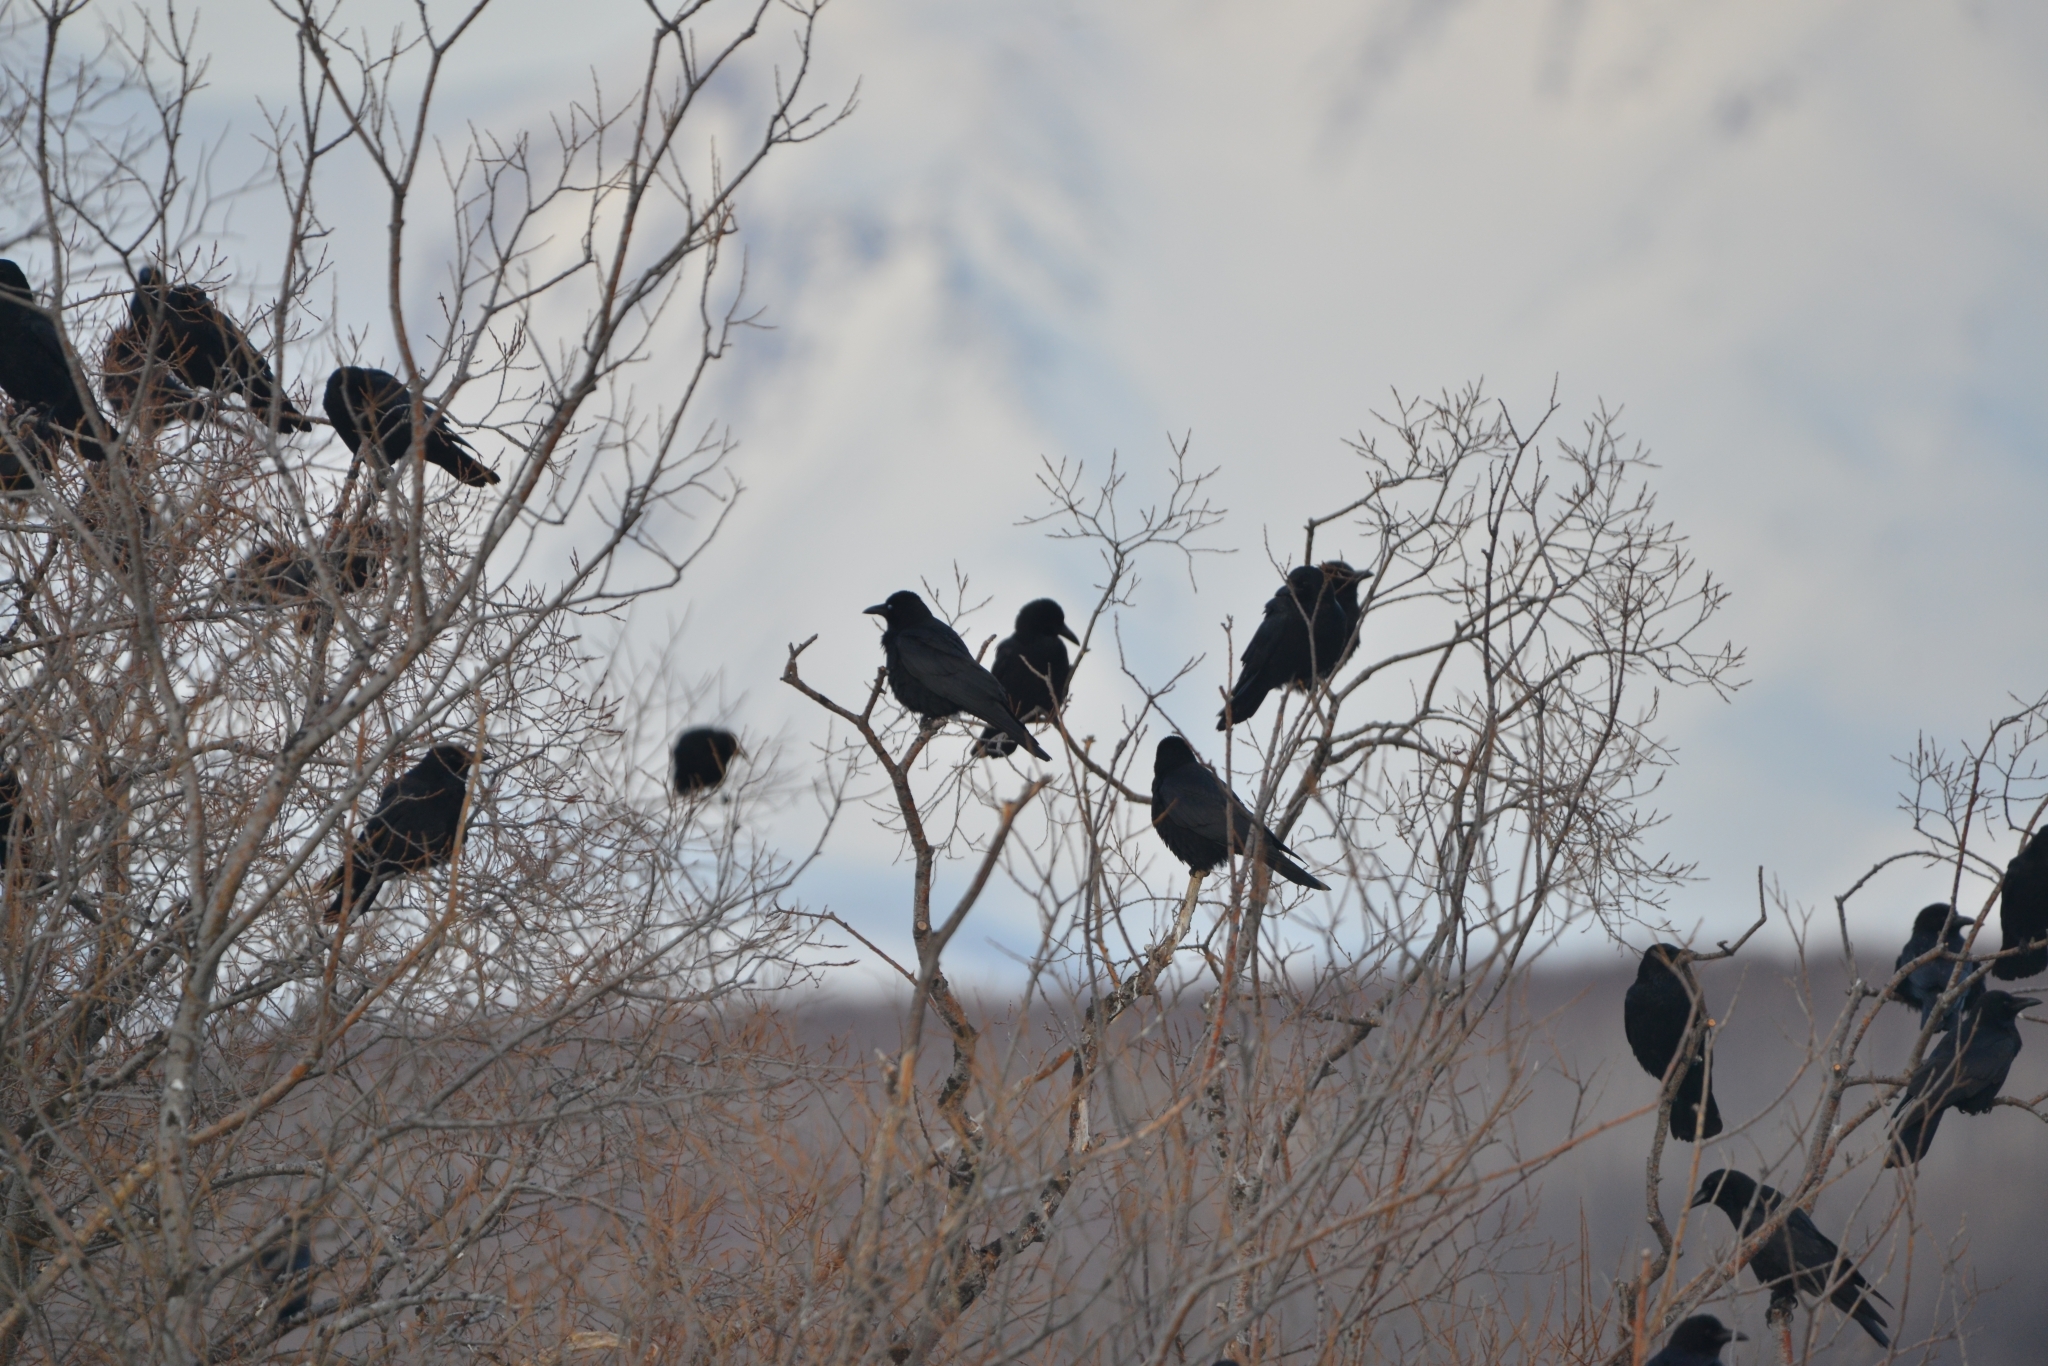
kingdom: Animalia
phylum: Chordata
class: Aves
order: Passeriformes
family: Corvidae
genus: Corvus
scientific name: Corvus corone
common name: Carrion crow
